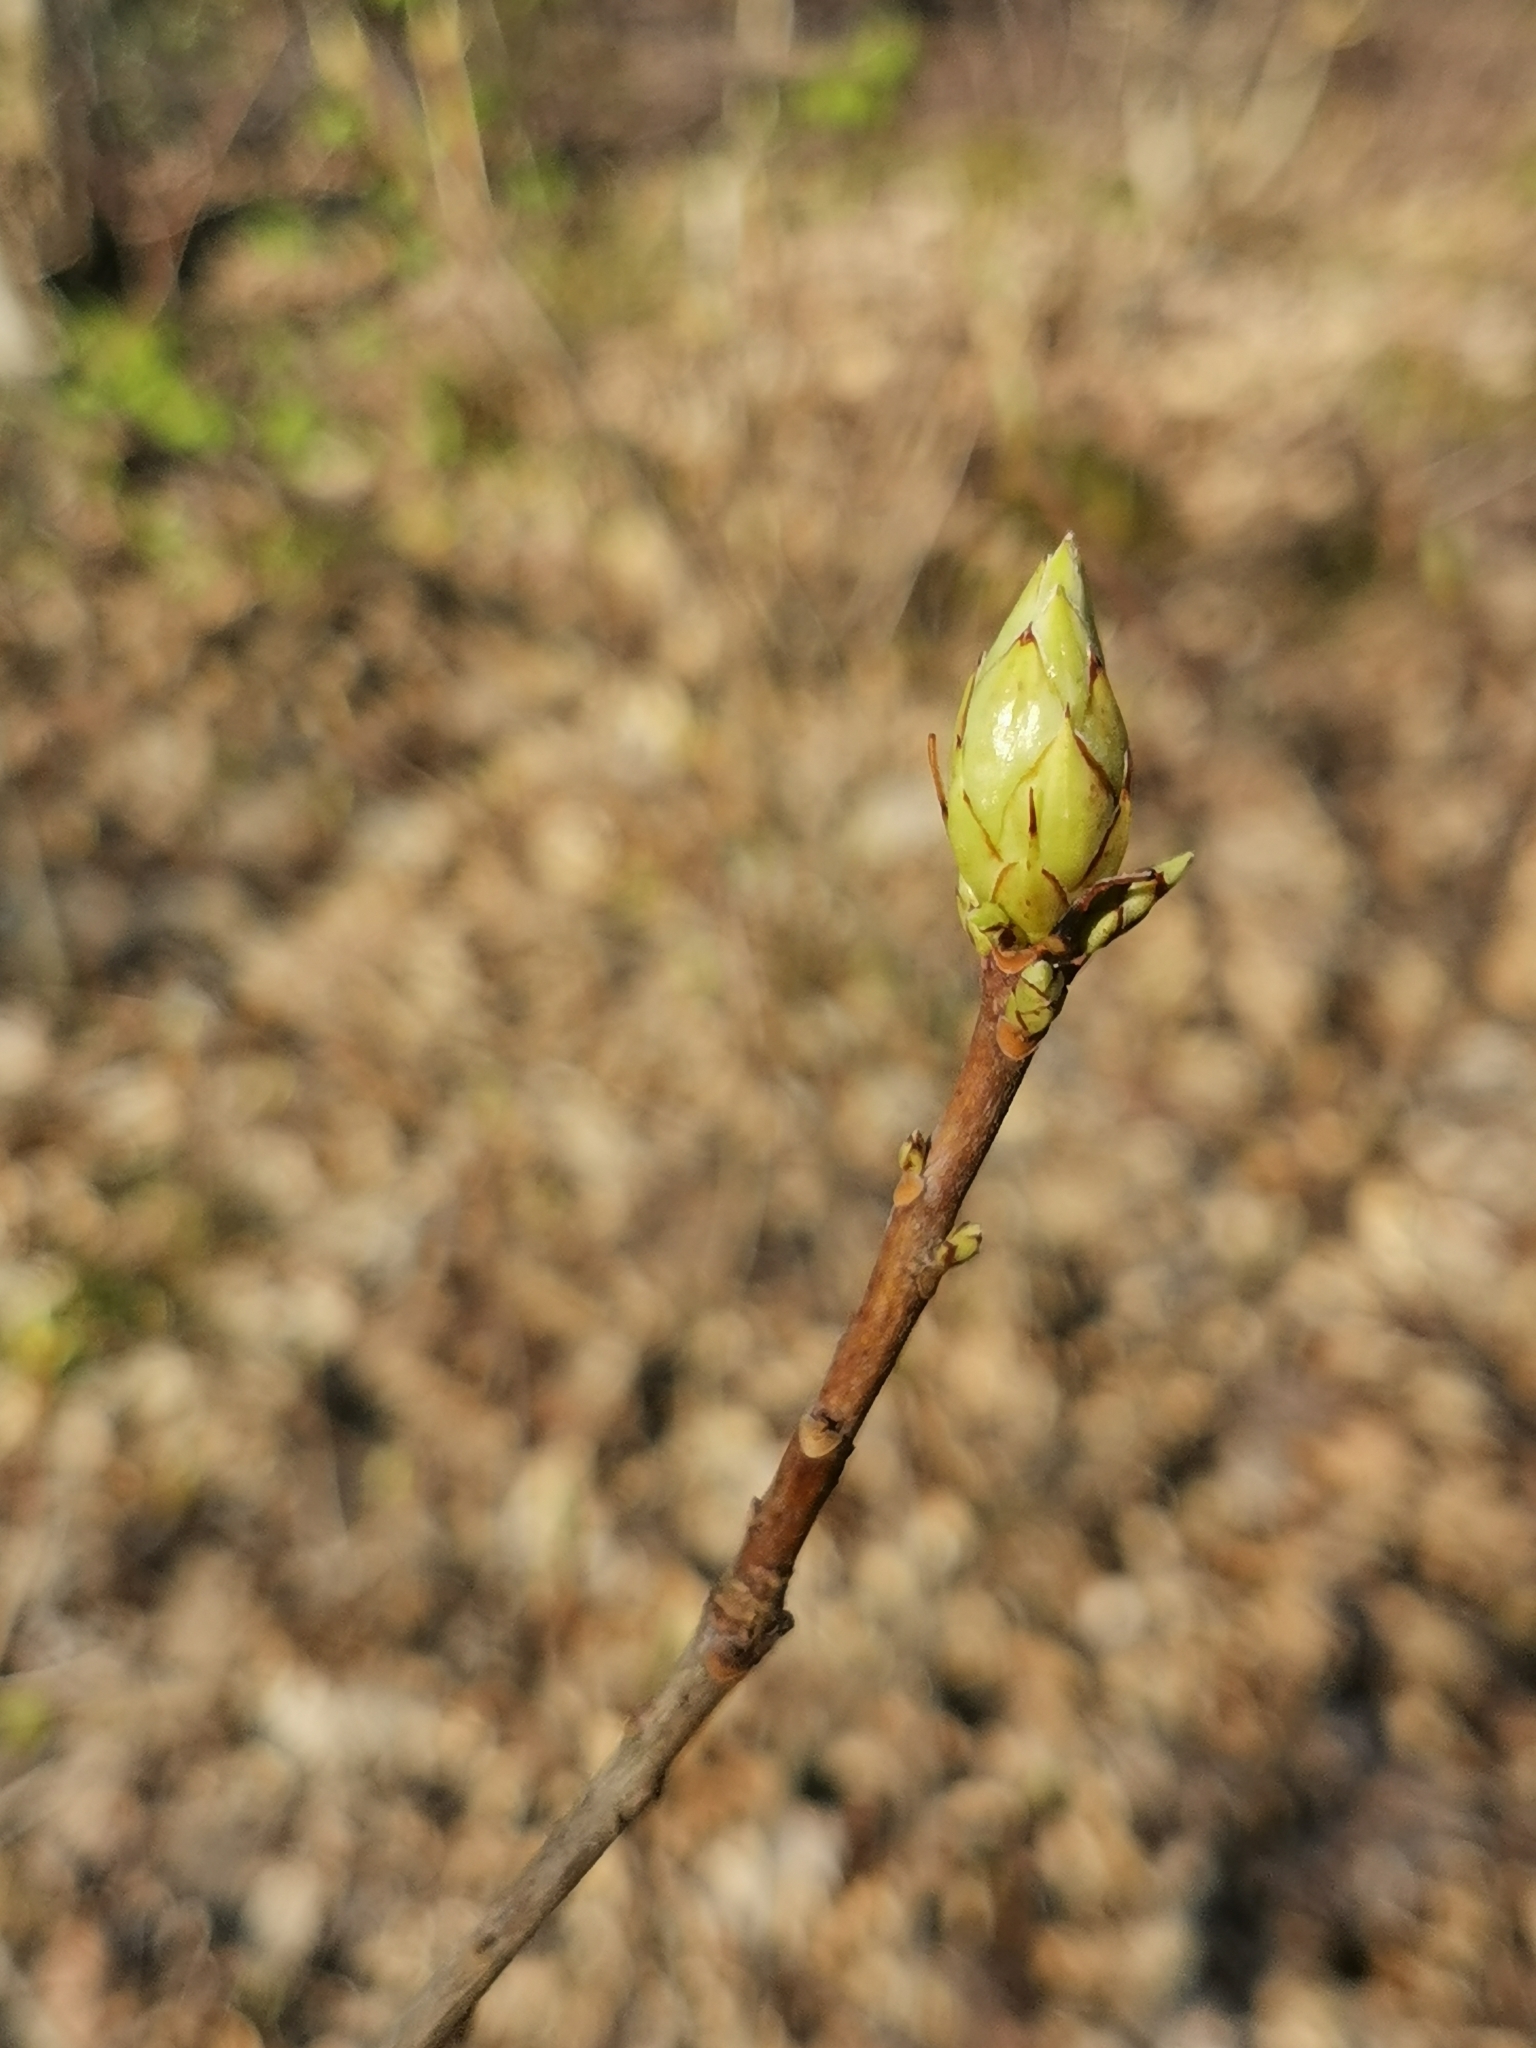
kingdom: Plantae
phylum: Tracheophyta
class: Magnoliopsida
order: Ericales
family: Ericaceae
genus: Rhododendron
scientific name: Rhododendron luteum
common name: Yellow azalea
